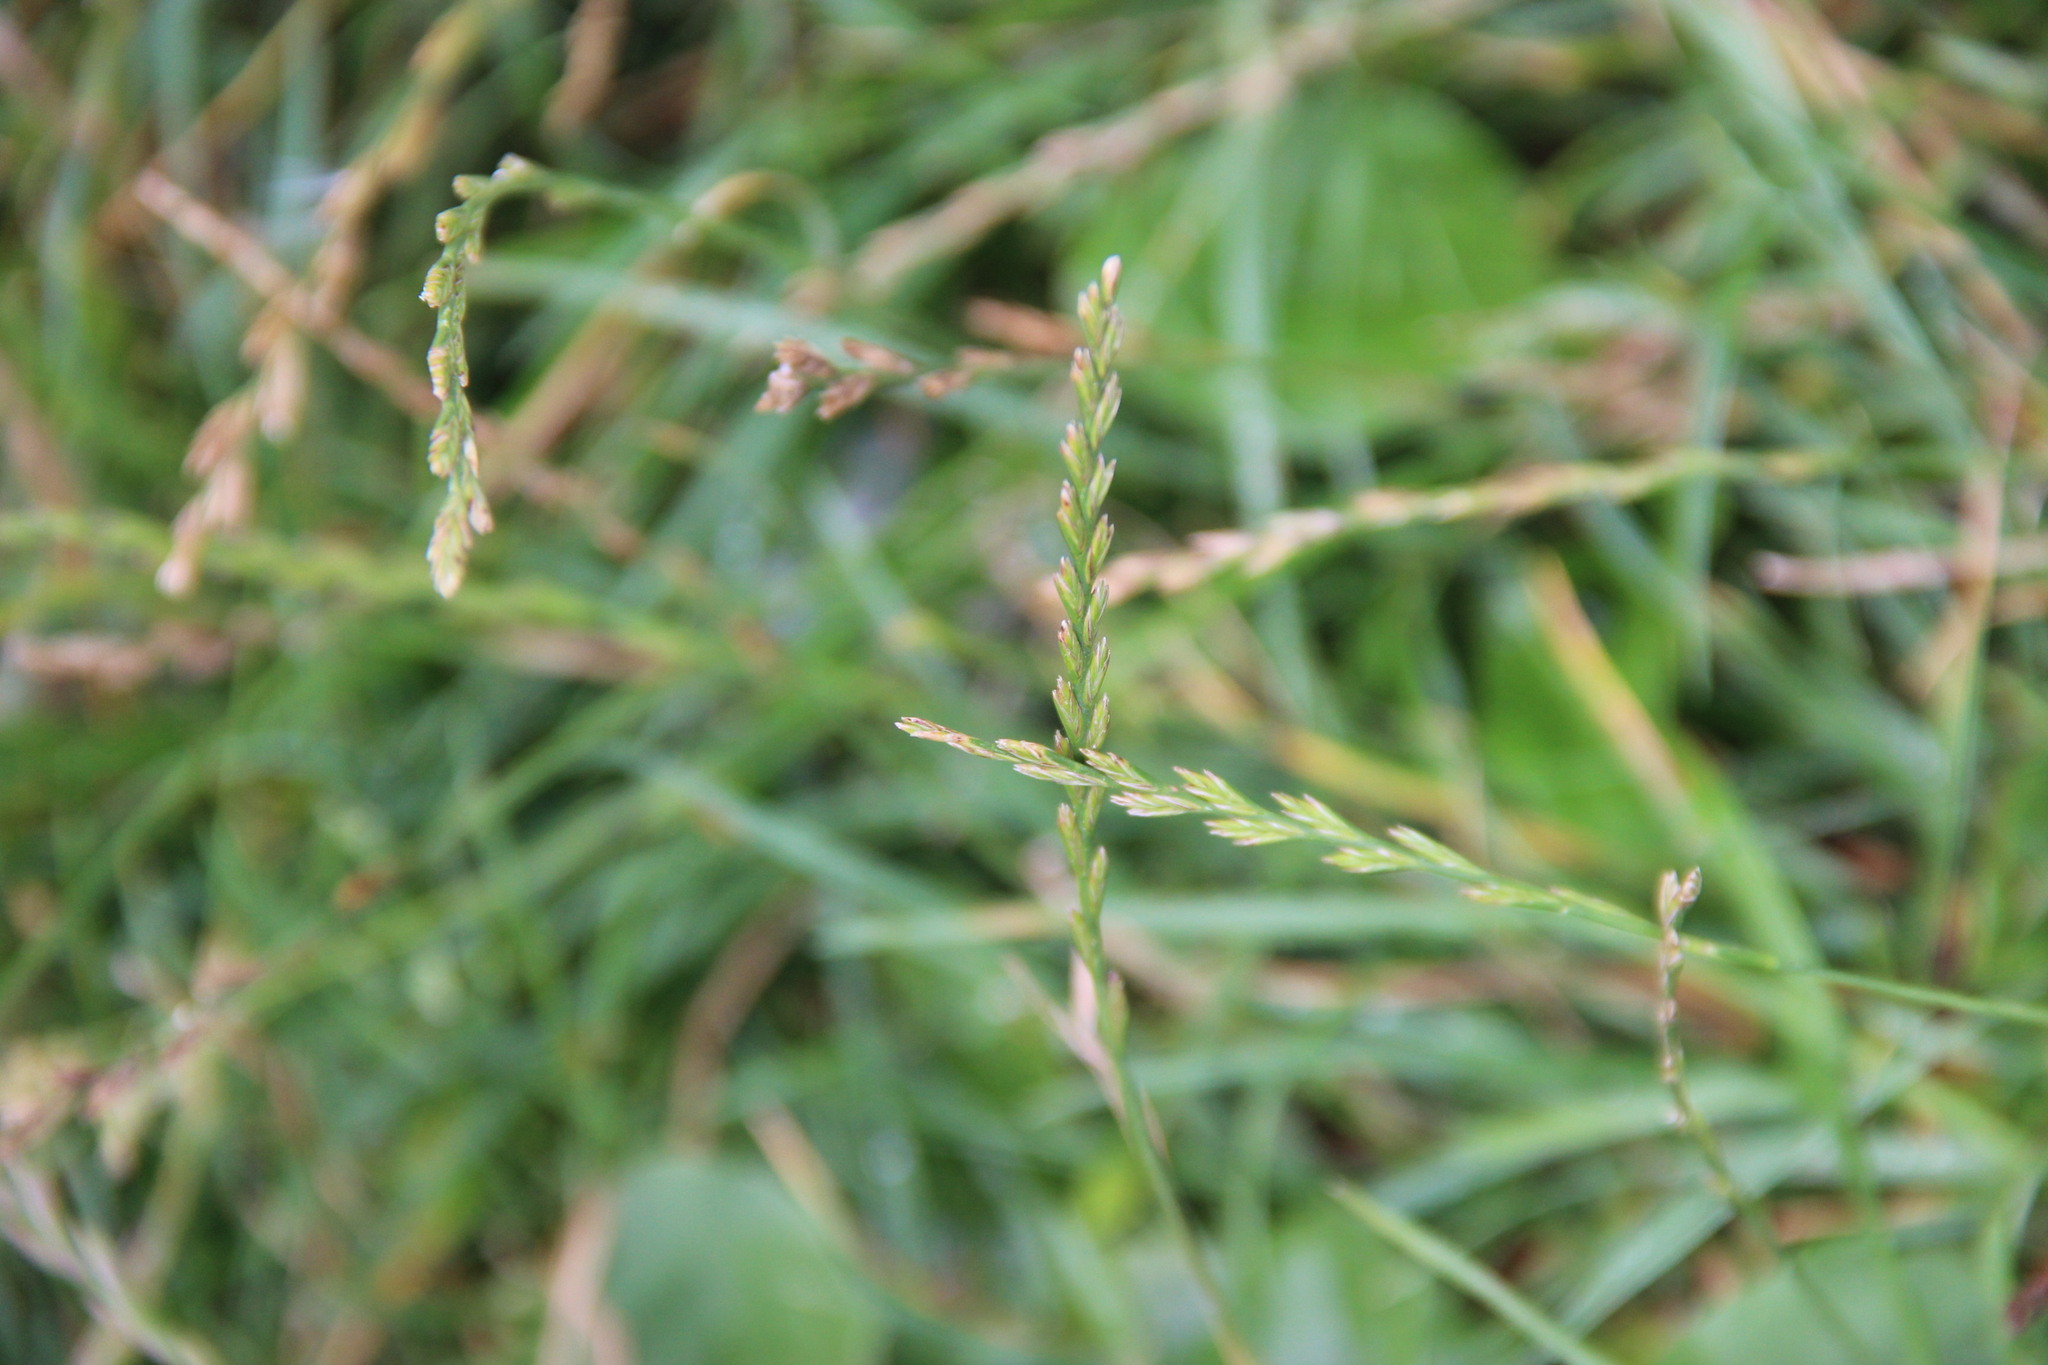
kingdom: Plantae
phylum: Tracheophyta
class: Liliopsida
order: Poales
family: Poaceae
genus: Lolium
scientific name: Lolium perenne
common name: Perennial ryegrass
